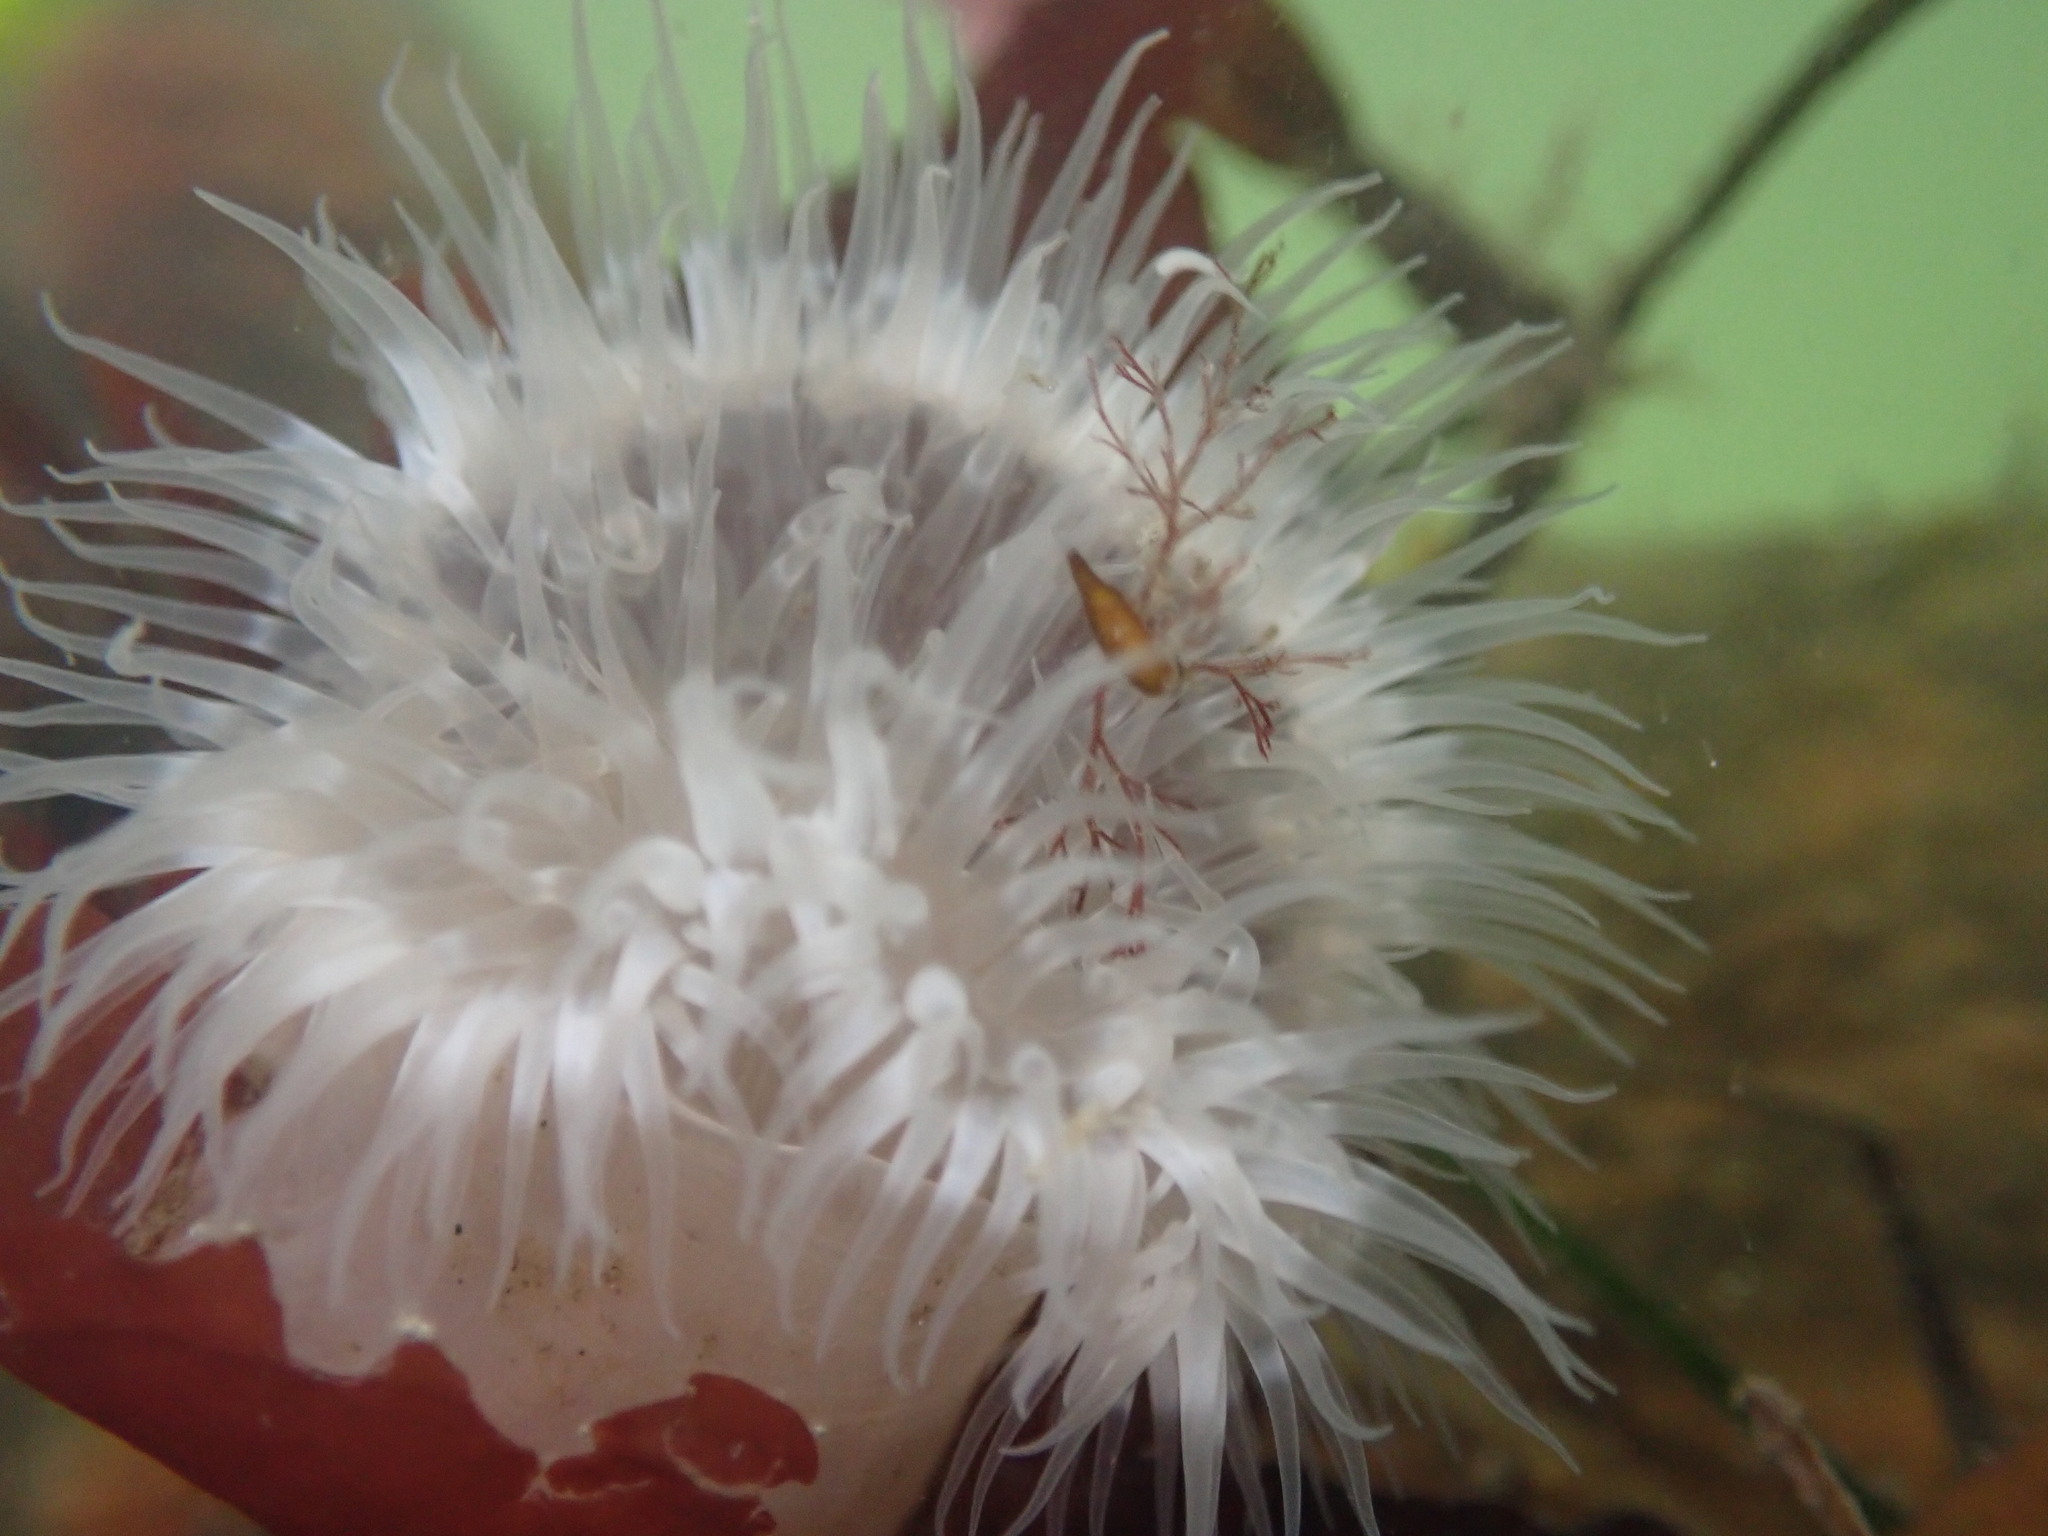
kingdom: Animalia
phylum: Cnidaria
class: Anthozoa
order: Actiniaria
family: Metridiidae
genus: Metridium
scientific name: Metridium senile
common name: Clonal plumose anemone
